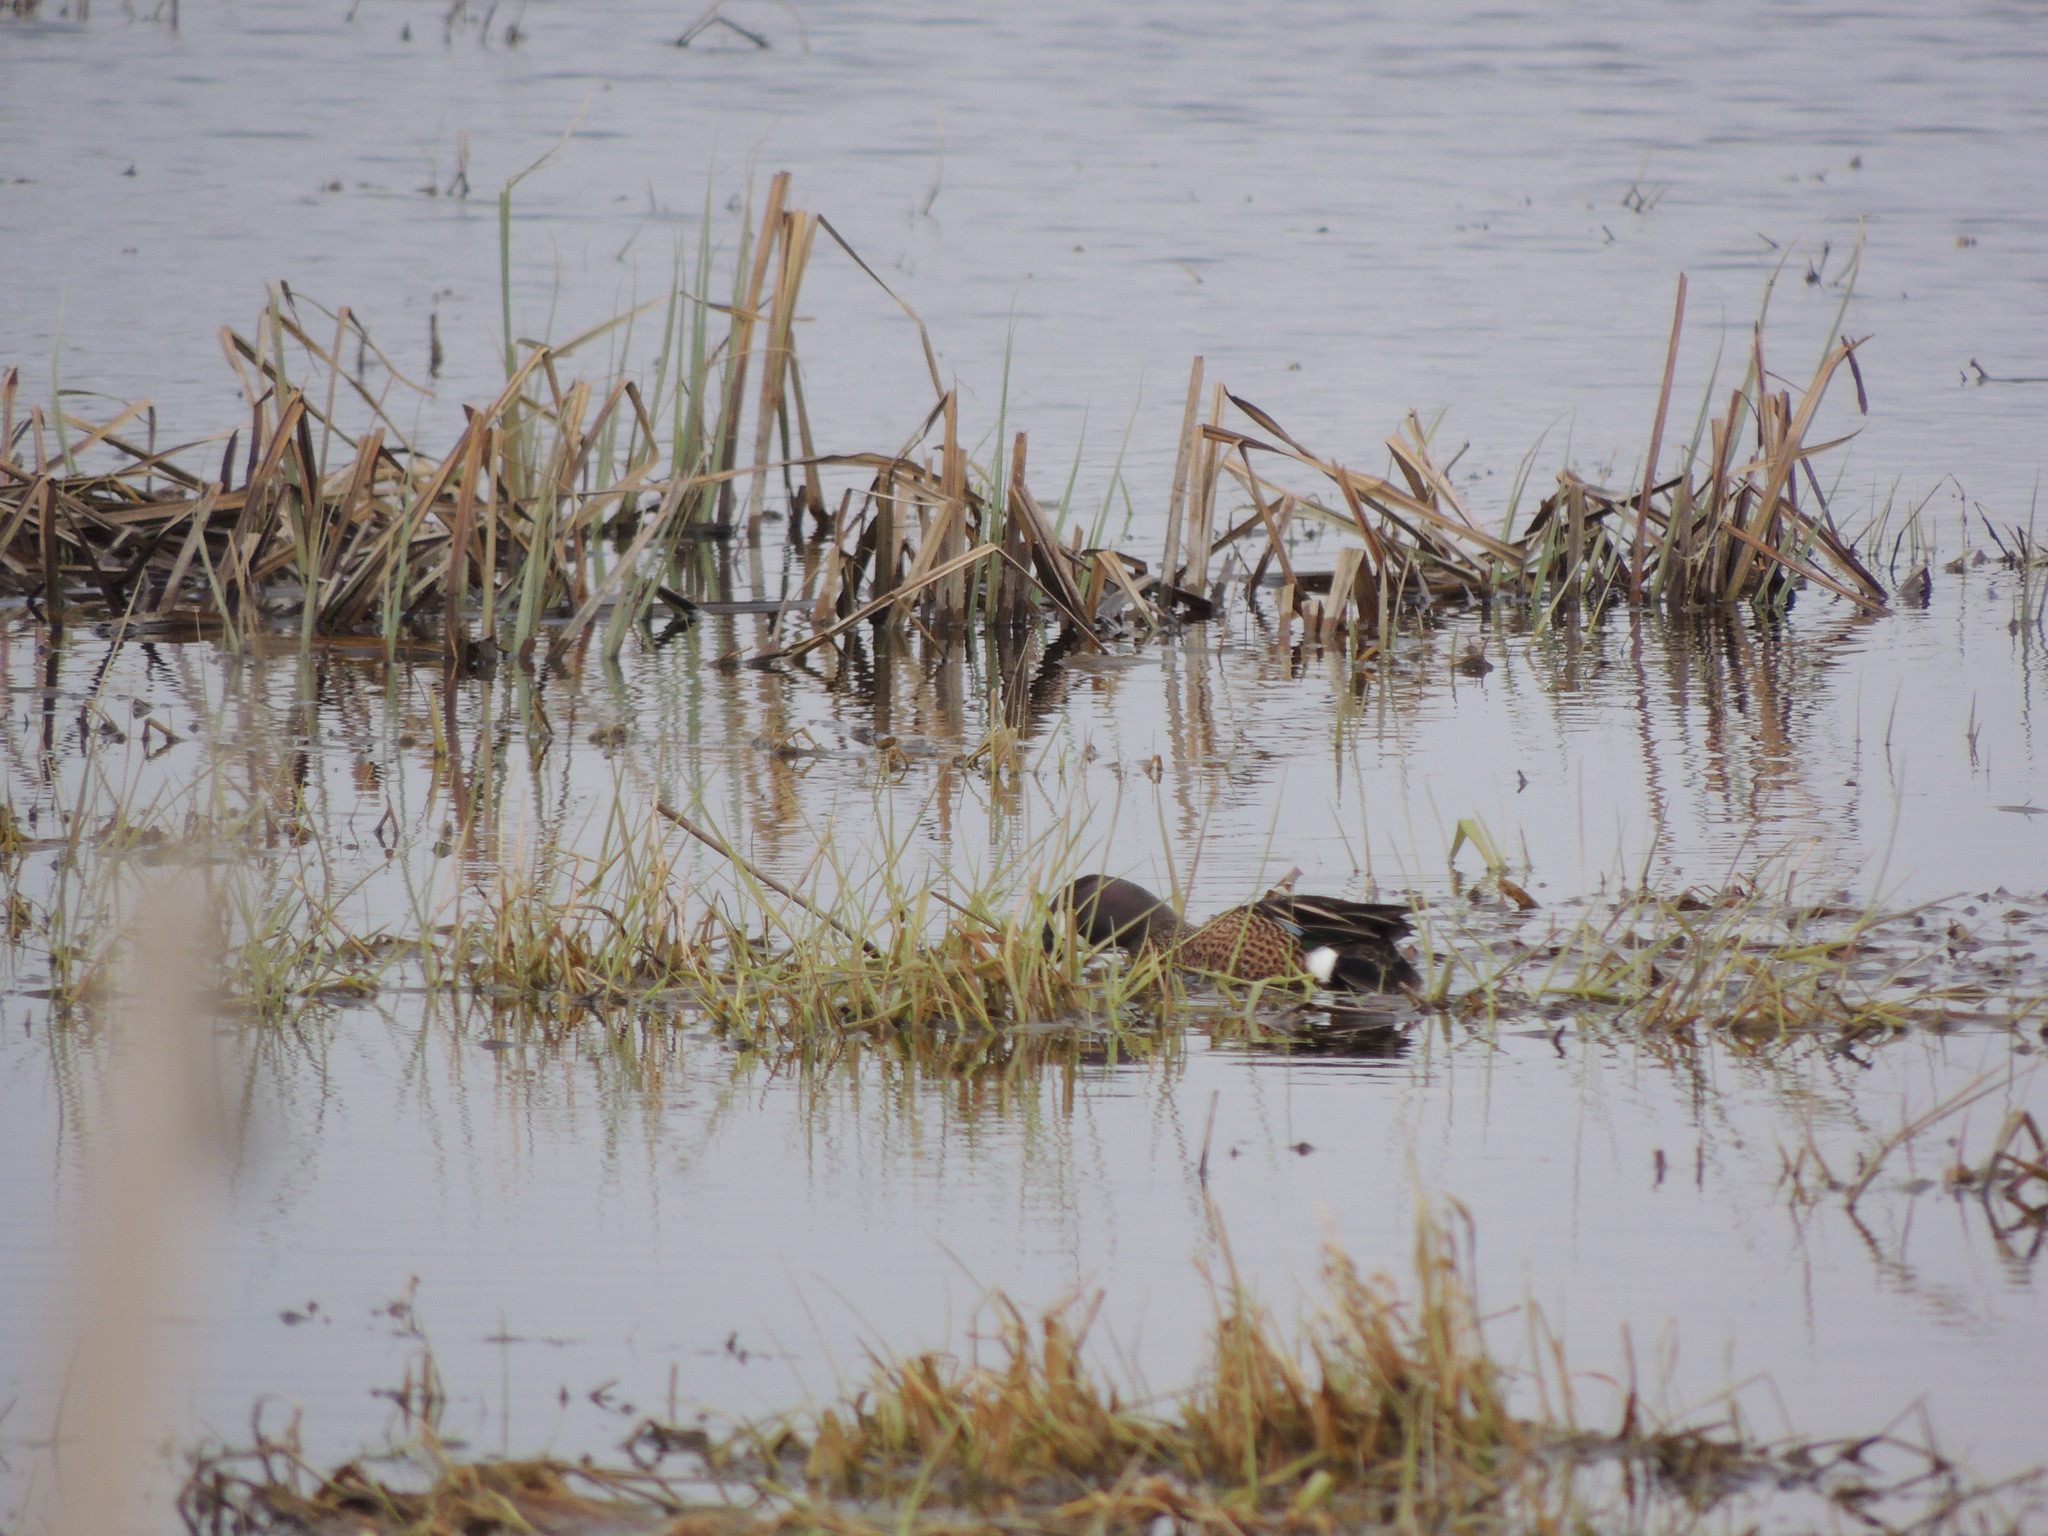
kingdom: Animalia
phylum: Chordata
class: Aves
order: Anseriformes
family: Anatidae
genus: Spatula
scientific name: Spatula discors
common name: Blue-winged teal
